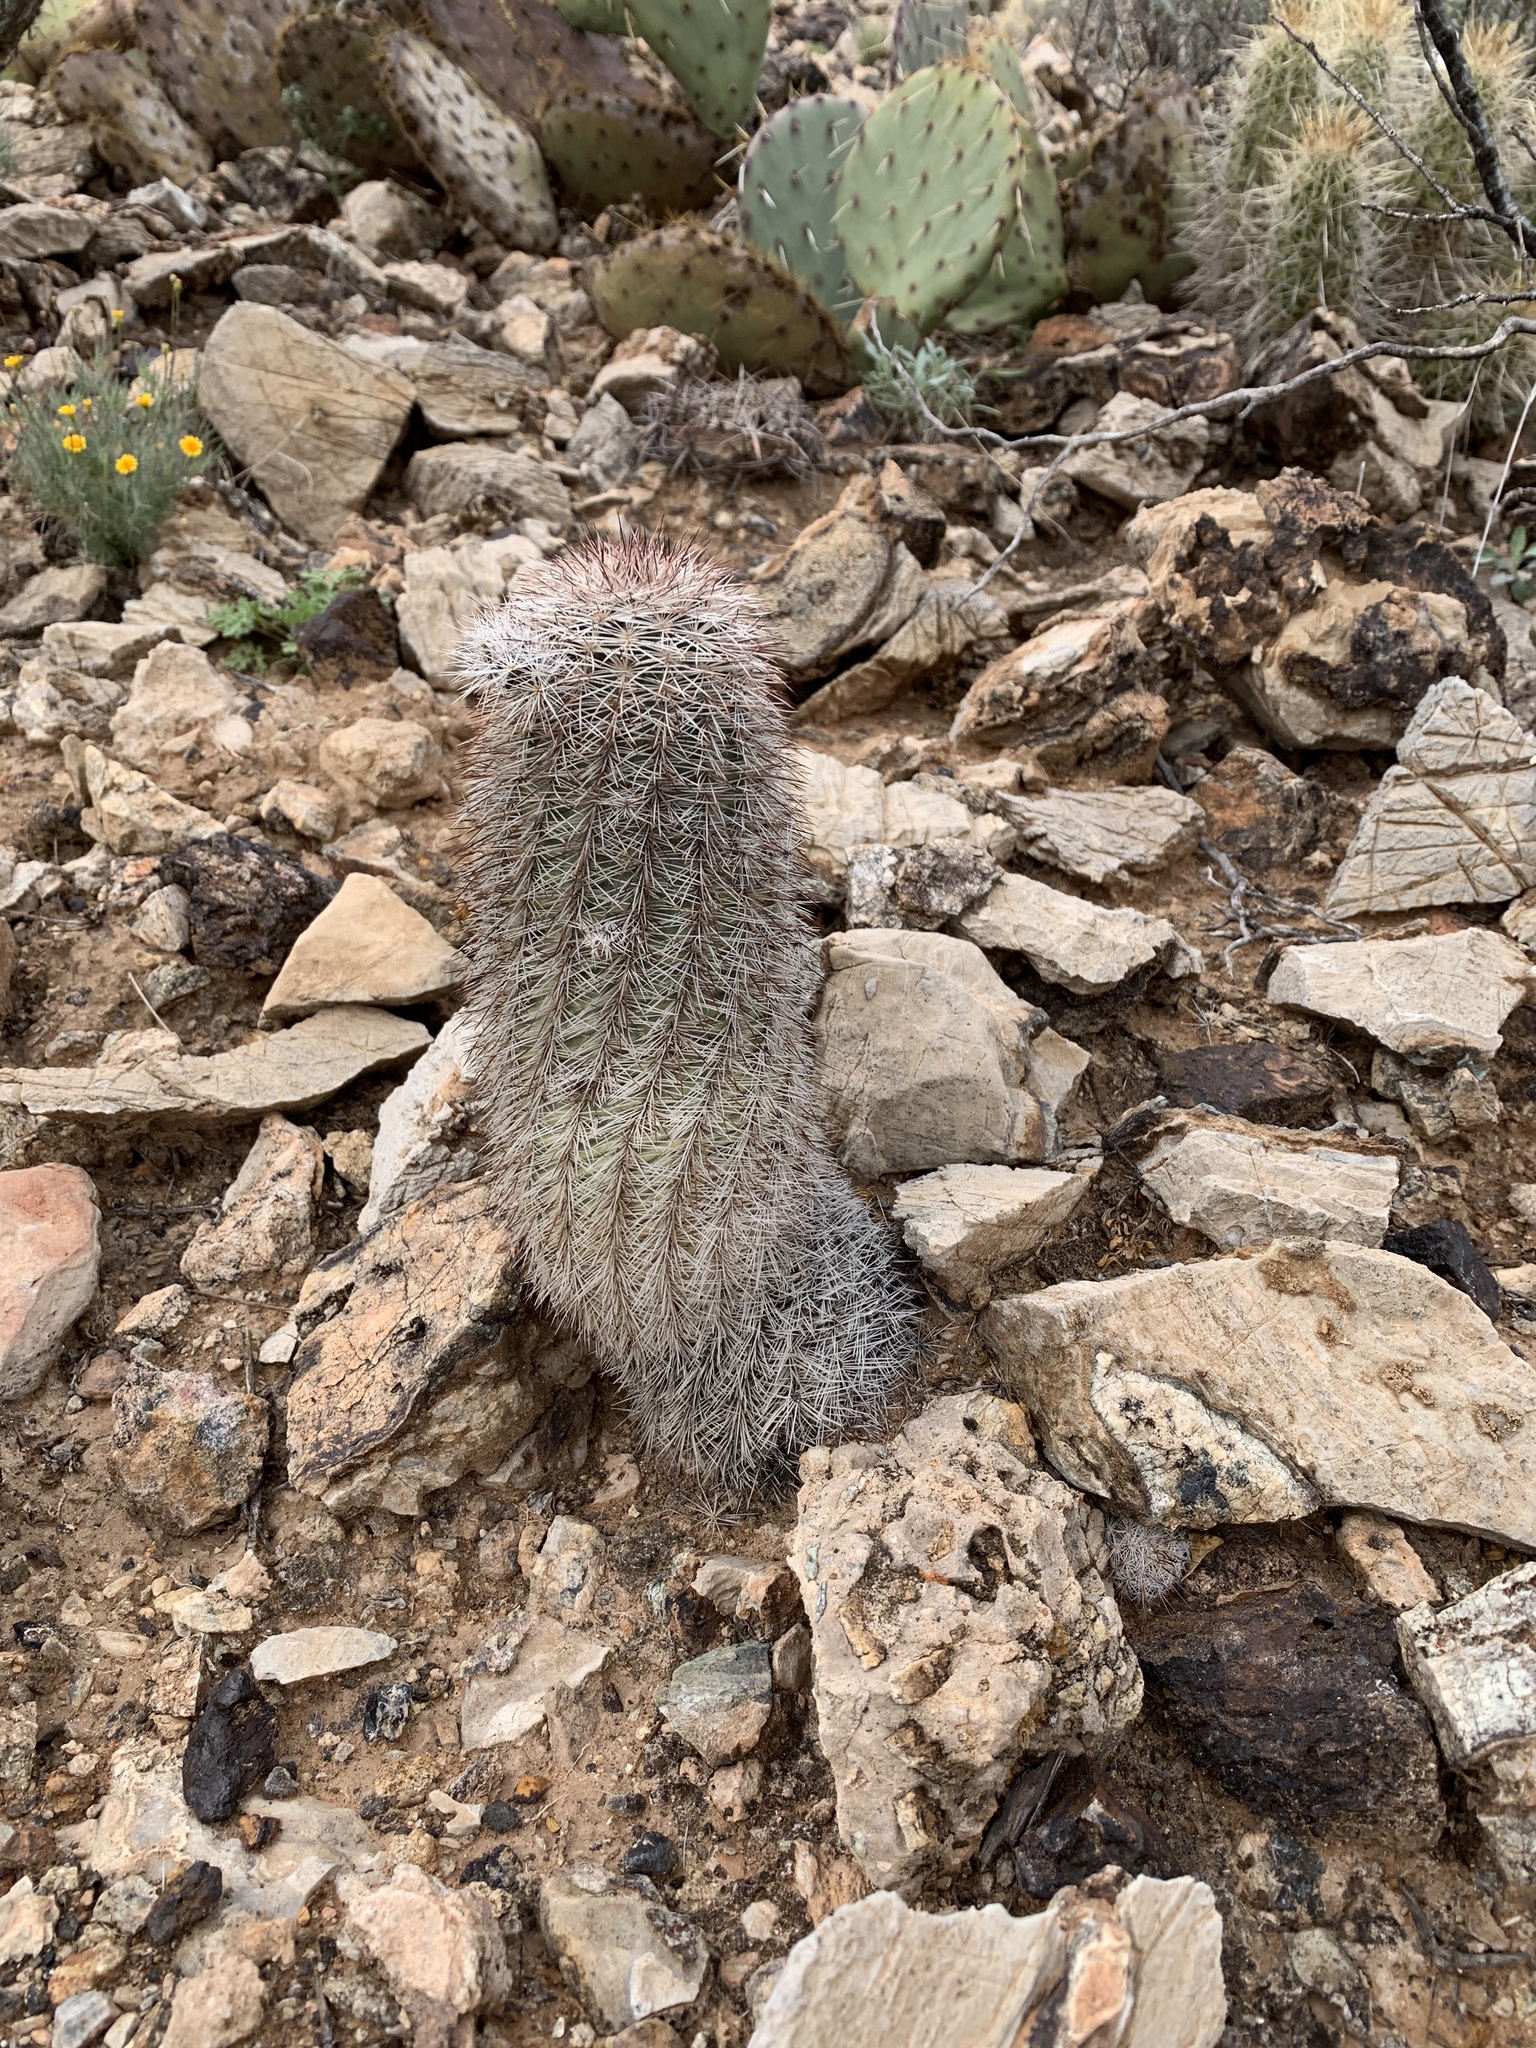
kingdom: Plantae
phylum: Tracheophyta
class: Magnoliopsida
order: Caryophyllales
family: Cactaceae
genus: Echinocereus
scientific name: Echinocereus dasyacanthus
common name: Spiny hedgehog cactus
